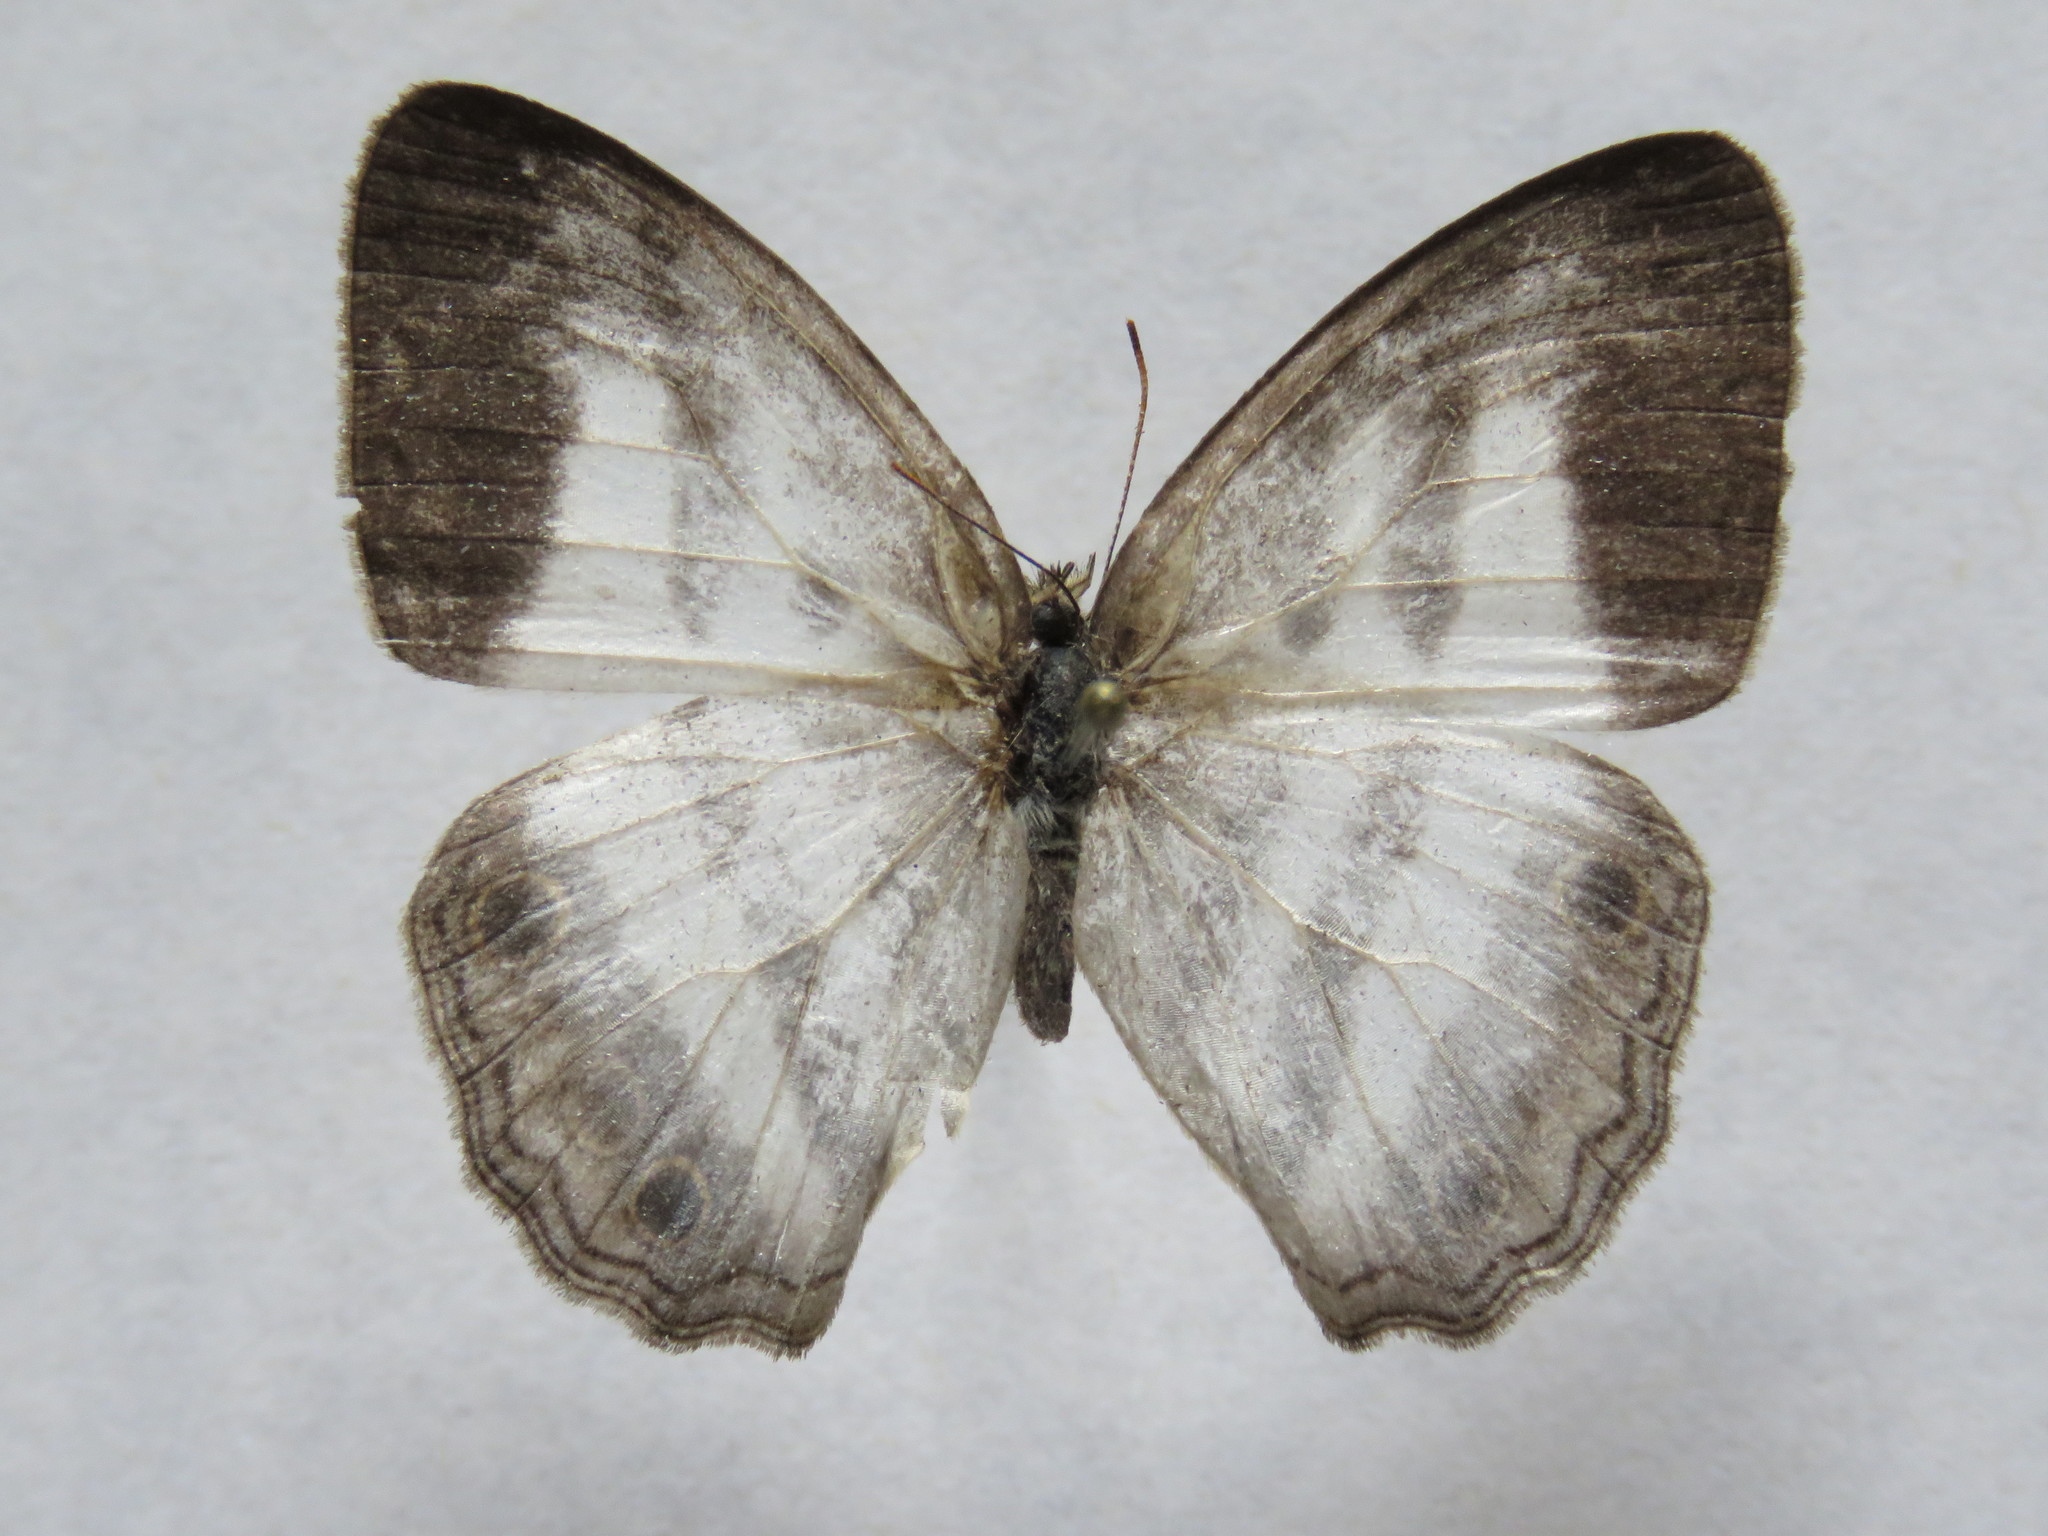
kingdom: Animalia
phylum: Arthropoda
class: Insecta
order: Lepidoptera
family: Nymphalidae
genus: Pareuptychia
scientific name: Pareuptychia hesione
